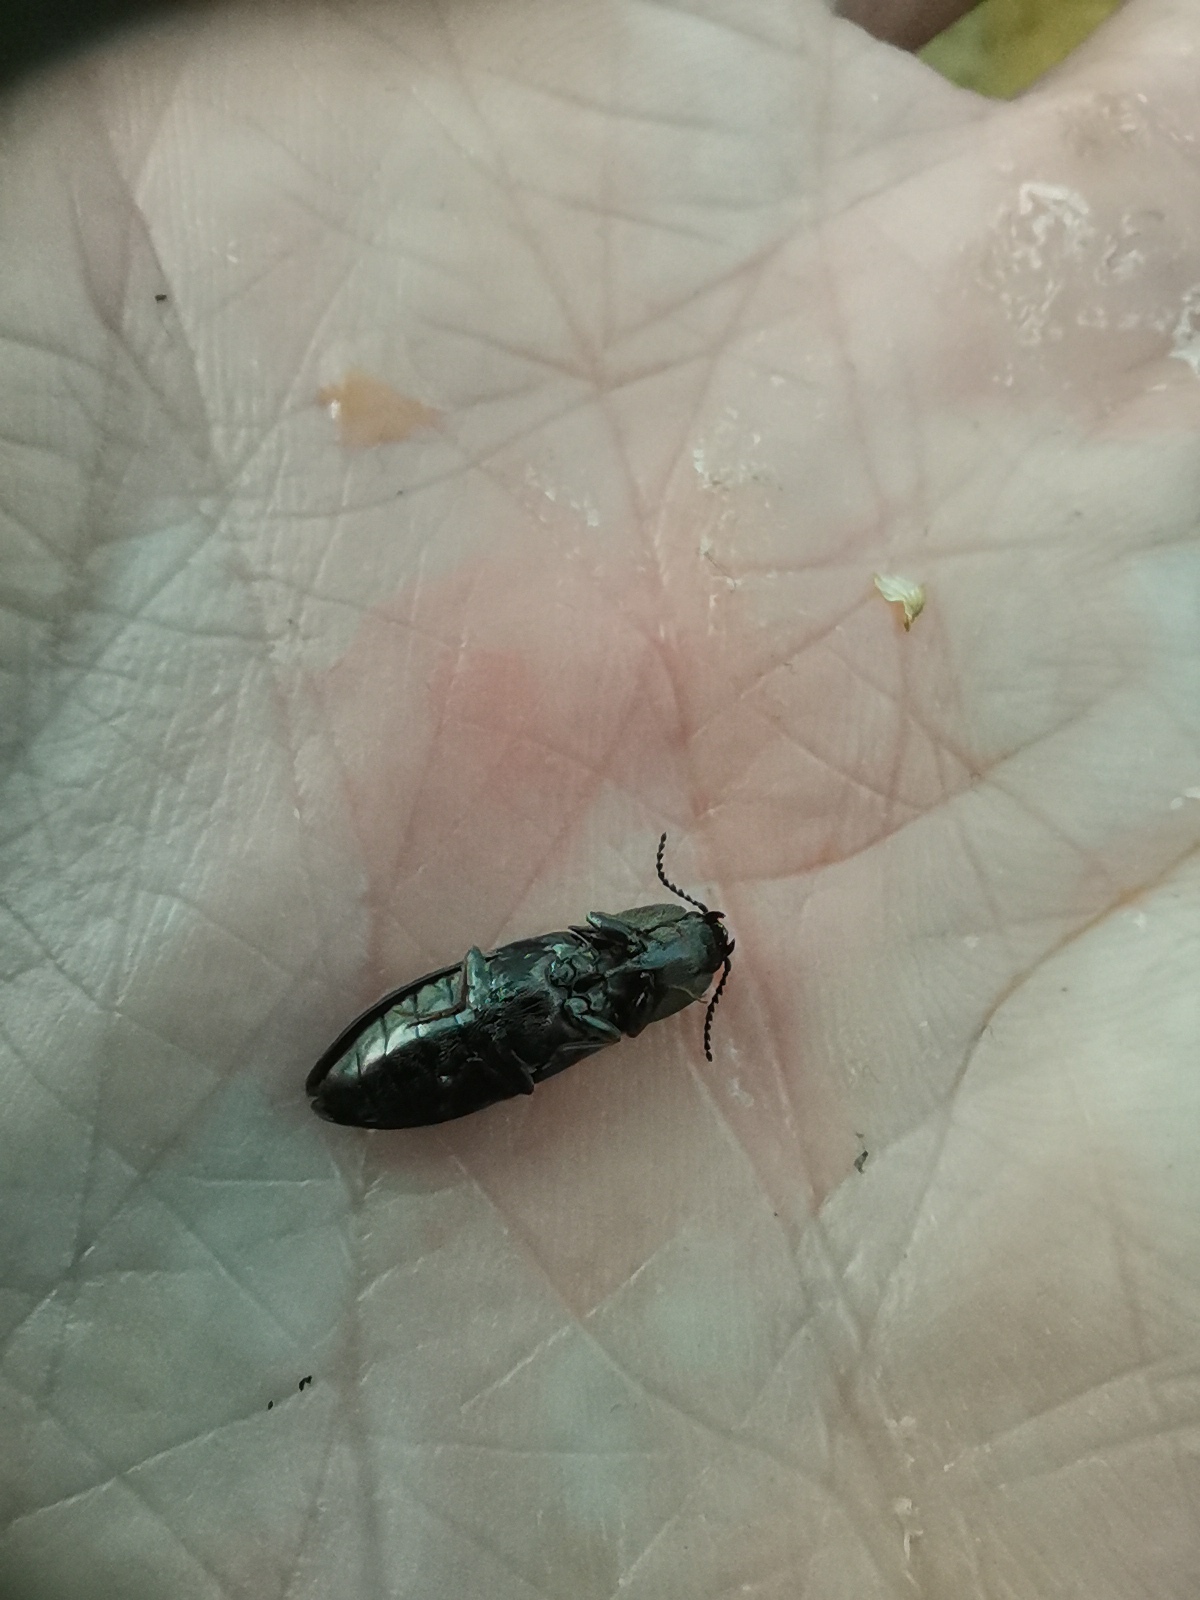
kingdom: Animalia
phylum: Arthropoda
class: Insecta
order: Coleoptera
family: Elateridae
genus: Paraphotistus
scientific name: Paraphotistus impressus
